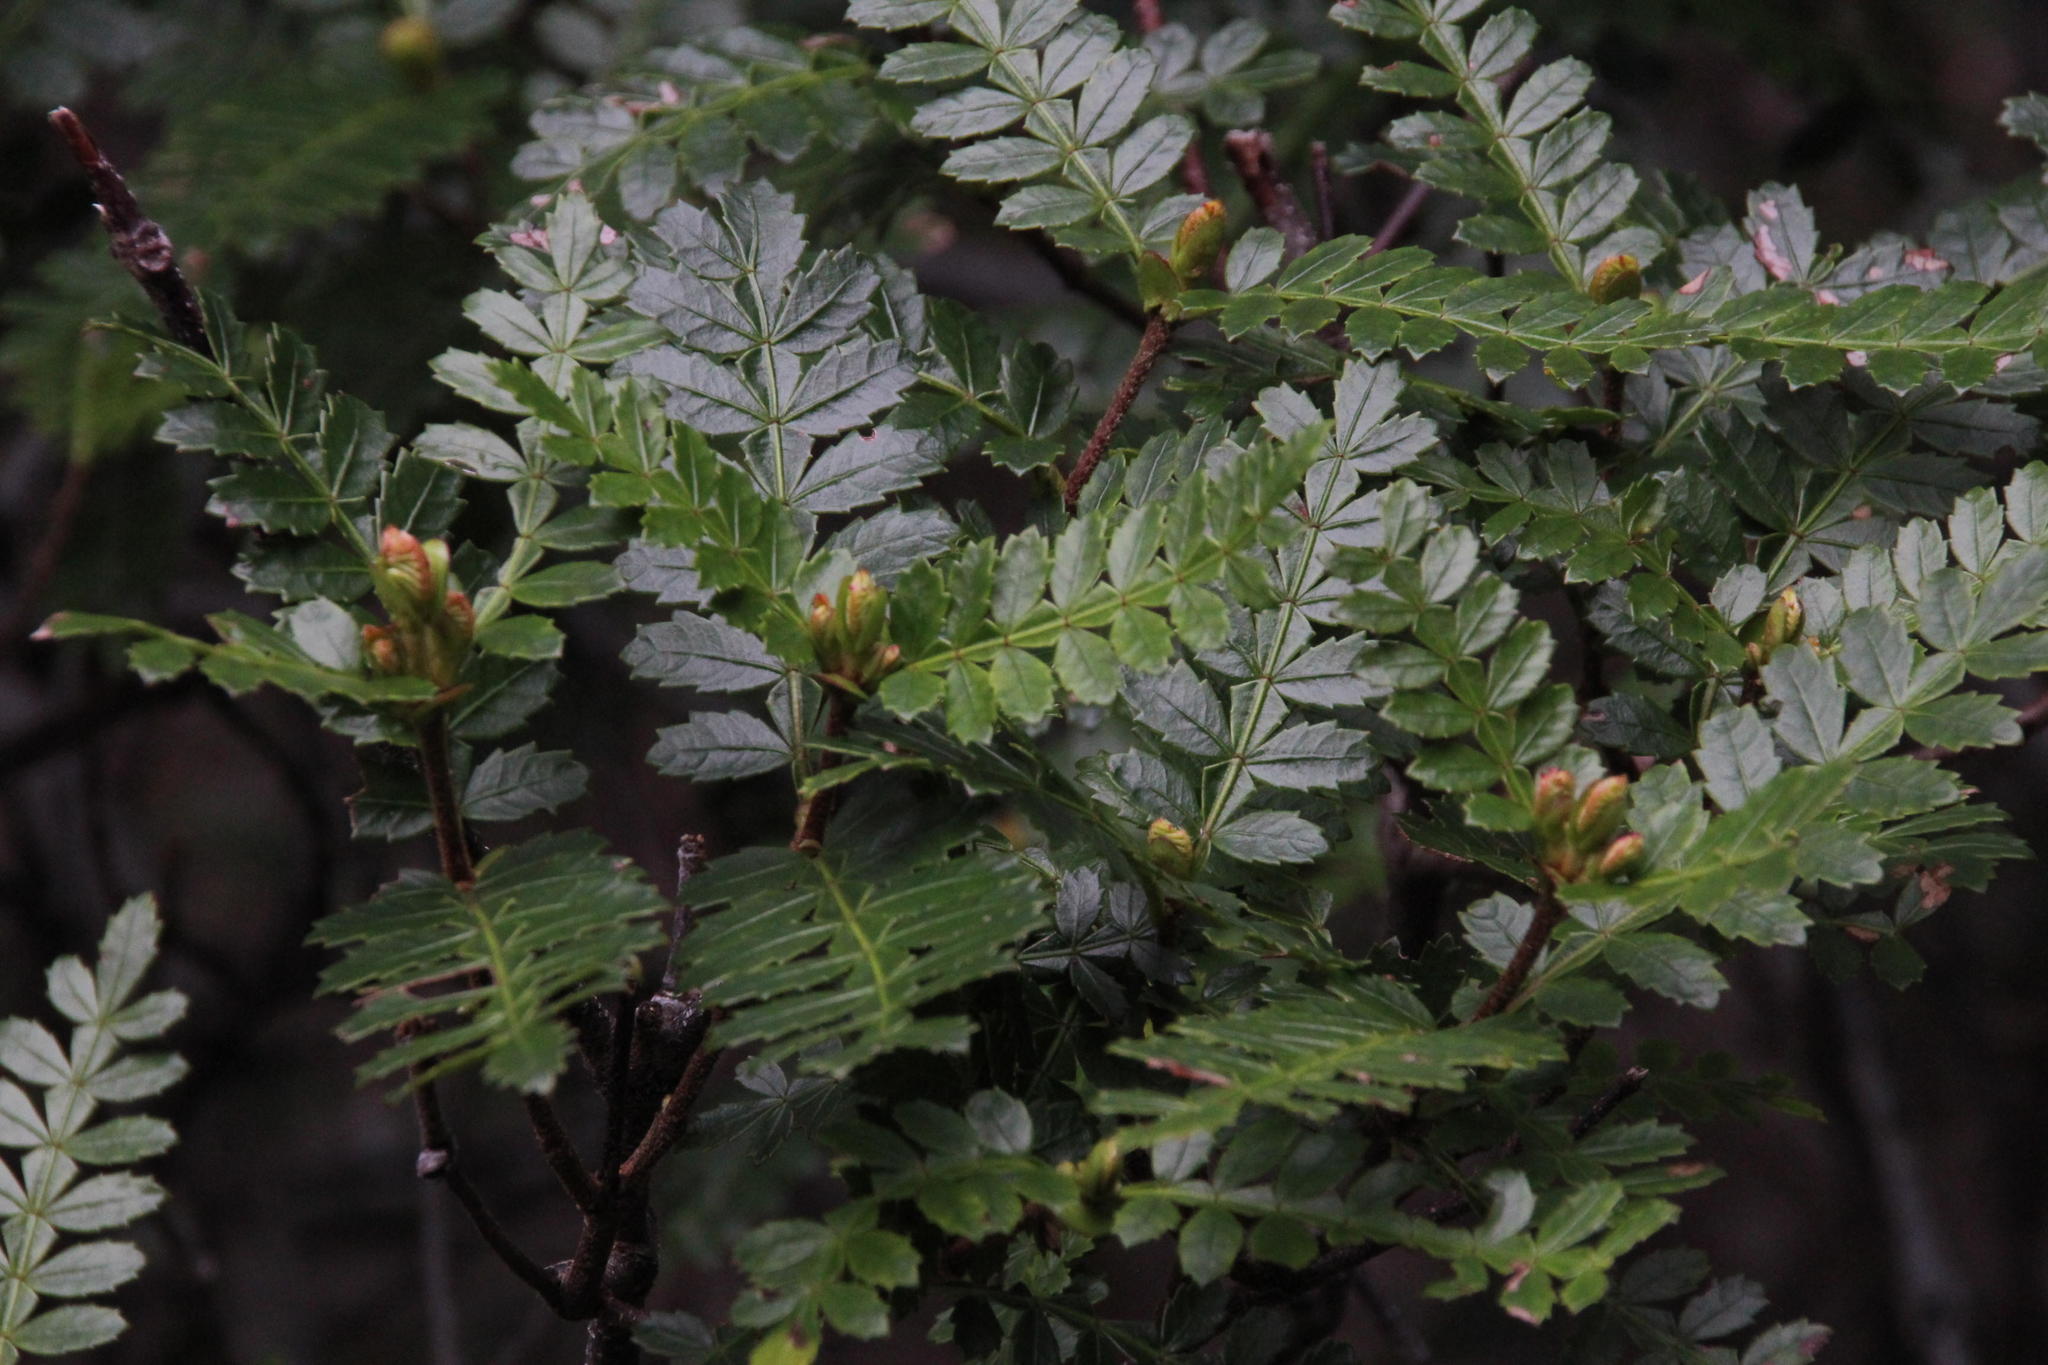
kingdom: Plantae
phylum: Tracheophyta
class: Magnoliopsida
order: Oxalidales
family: Cunoniaceae
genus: Weinmannia
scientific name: Weinmannia trichosperma
